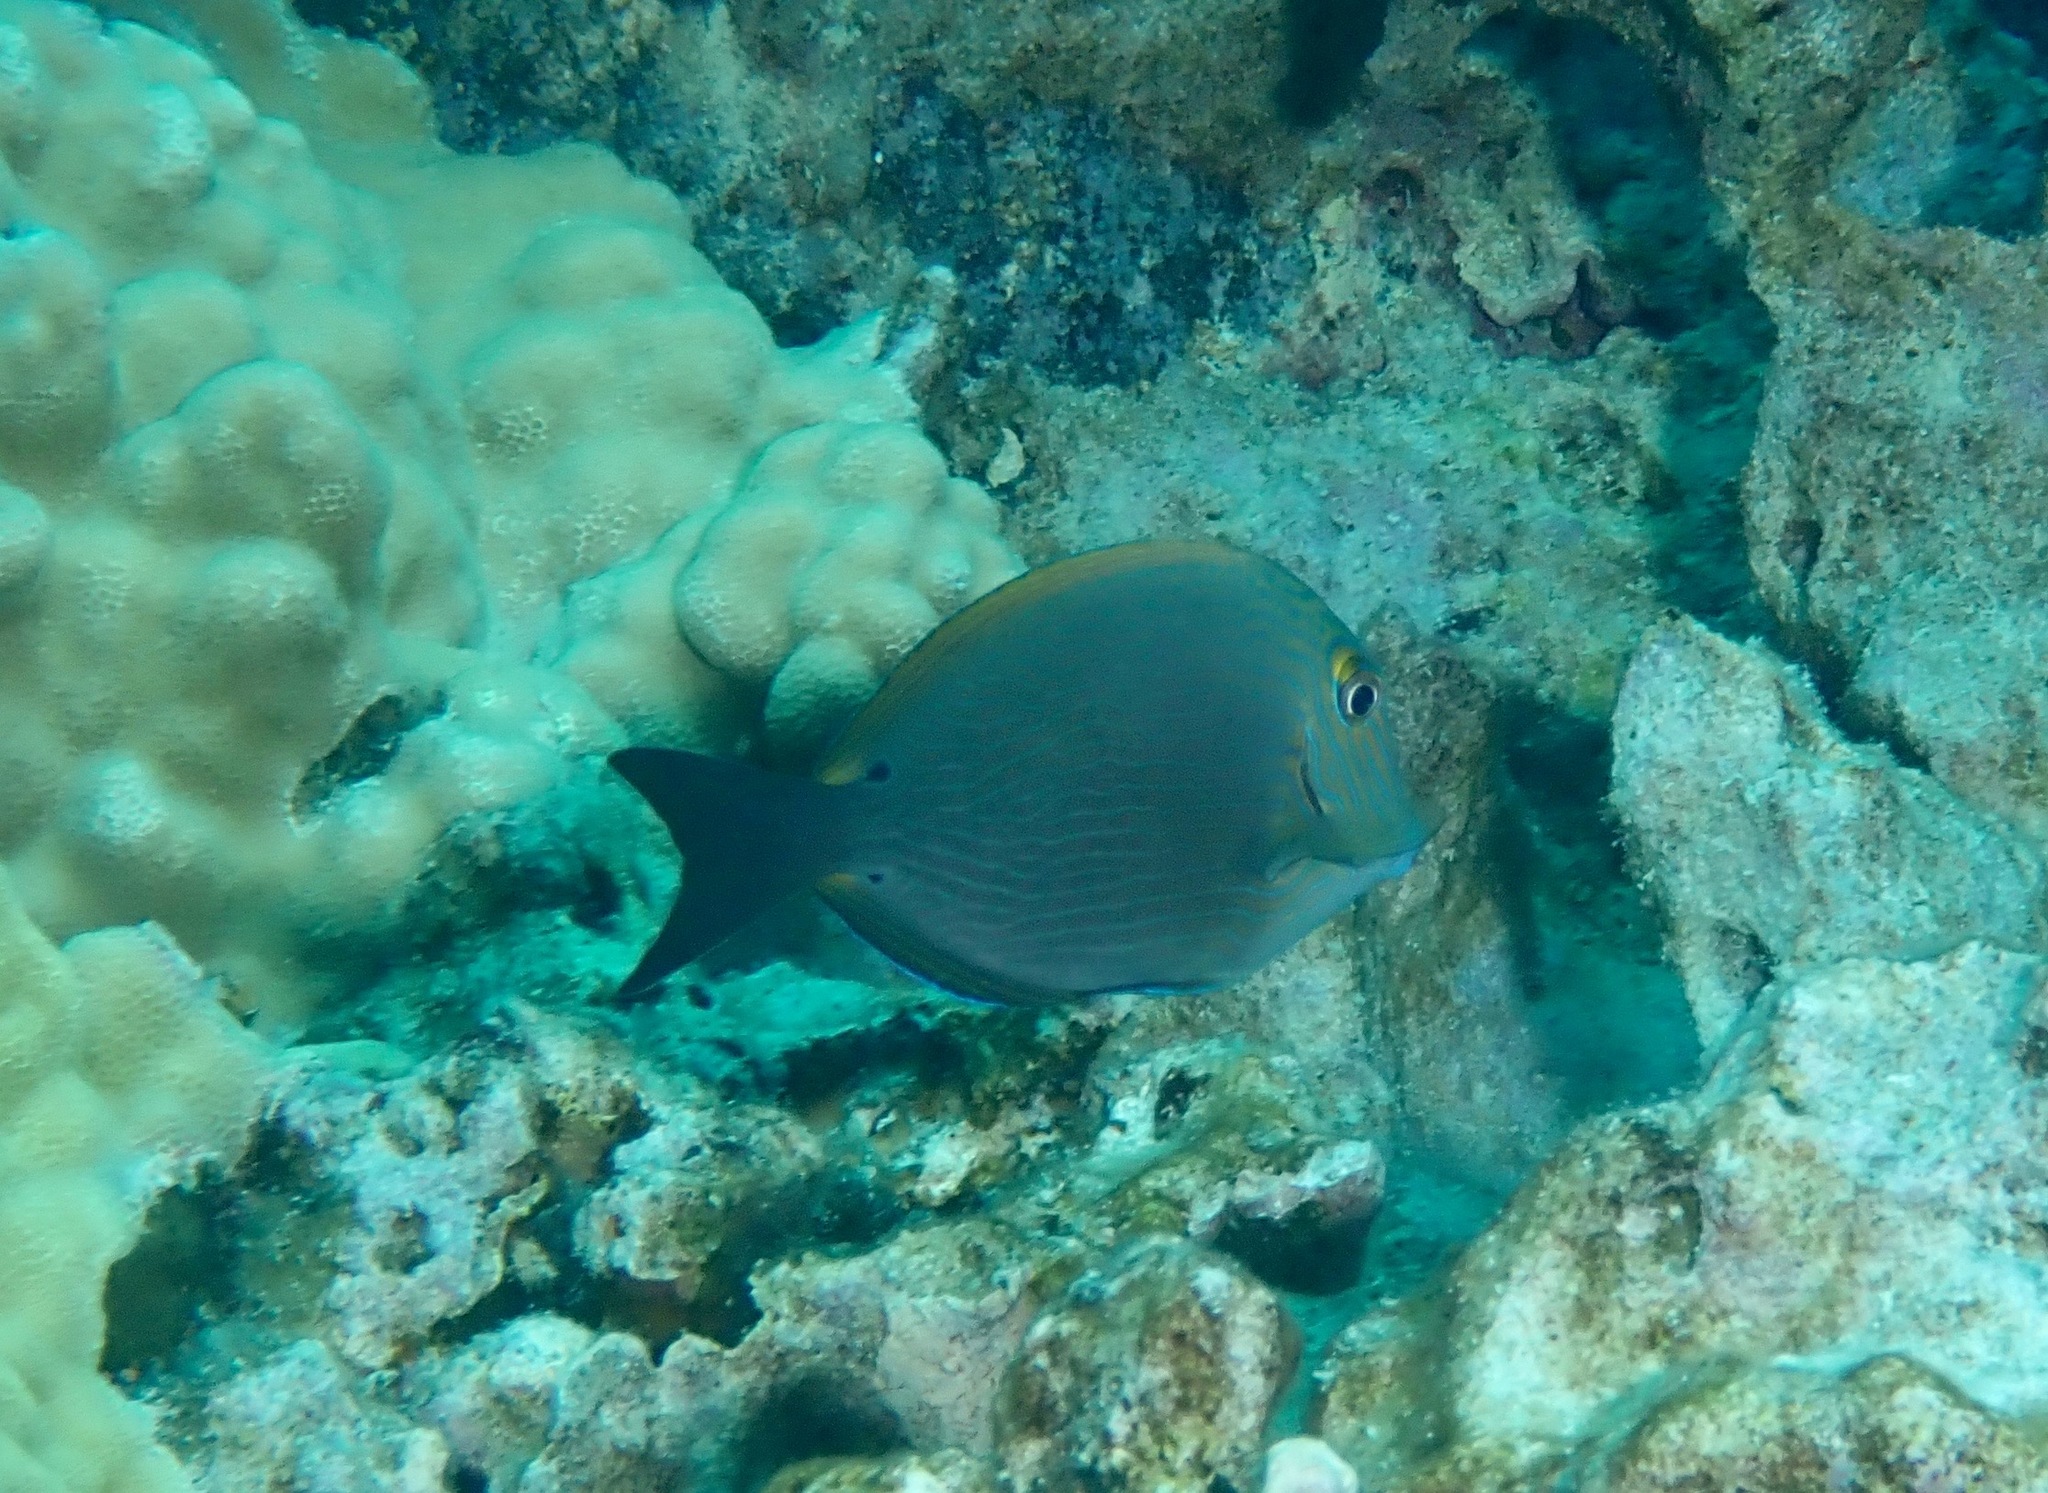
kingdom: Animalia
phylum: Chordata
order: Perciformes
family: Acanthuridae
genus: Acanthurus
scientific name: Acanthurus nigroris
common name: Bluelined surgeonfish
